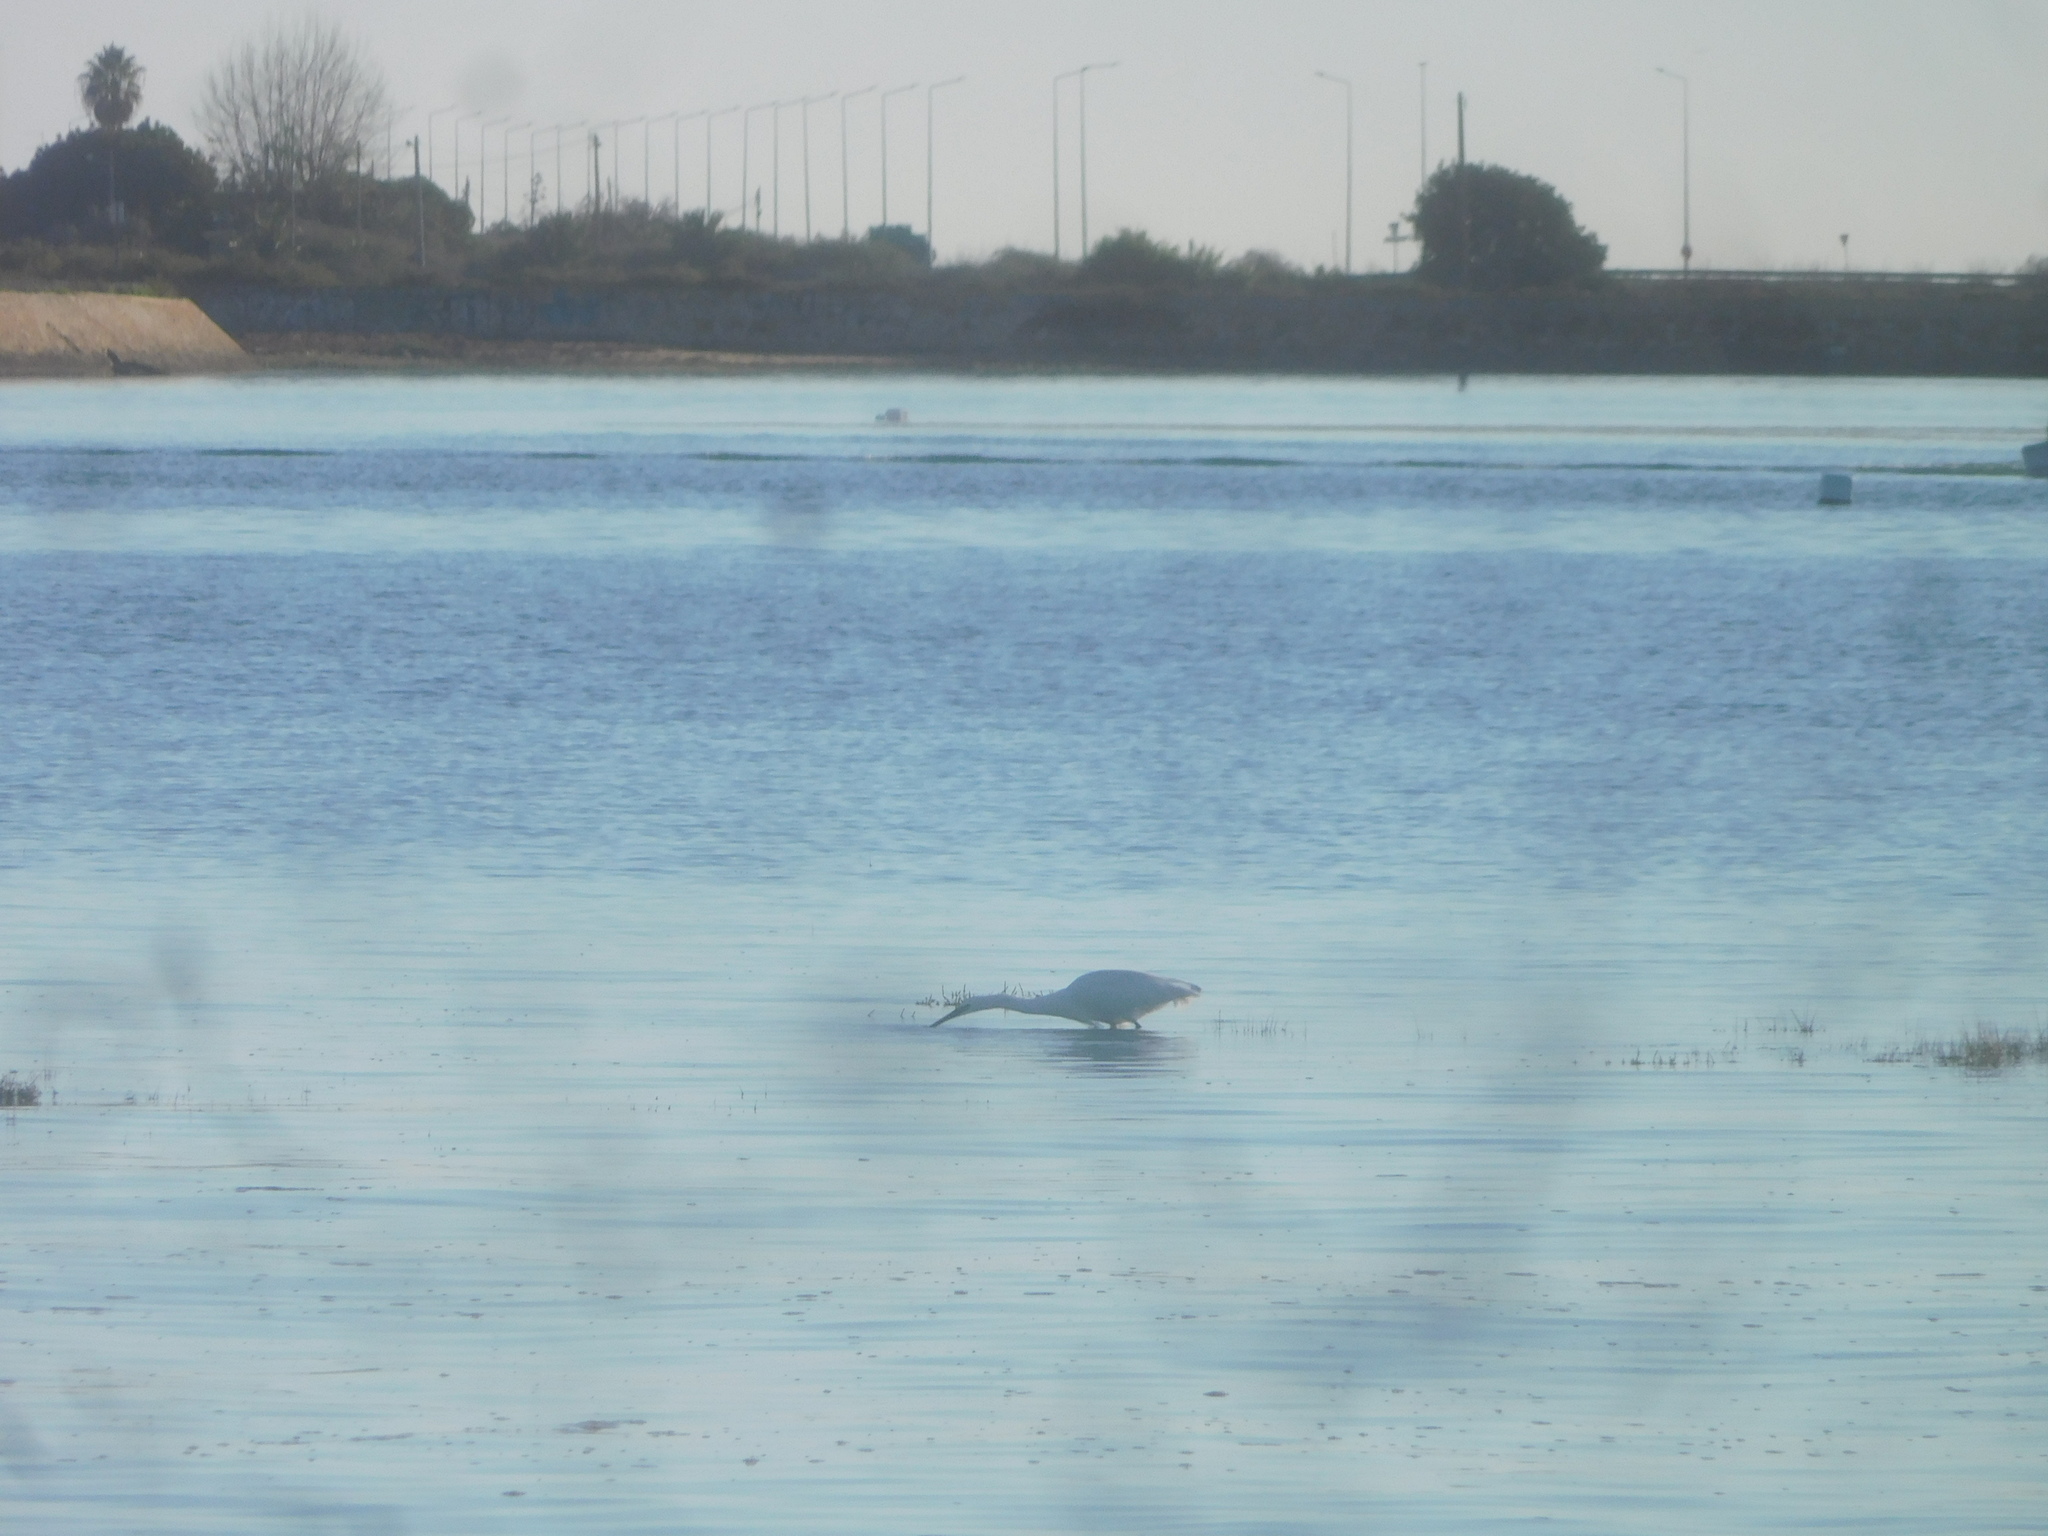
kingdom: Animalia
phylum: Chordata
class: Aves
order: Pelecaniformes
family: Ardeidae
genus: Egretta
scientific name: Egretta garzetta
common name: Little egret
